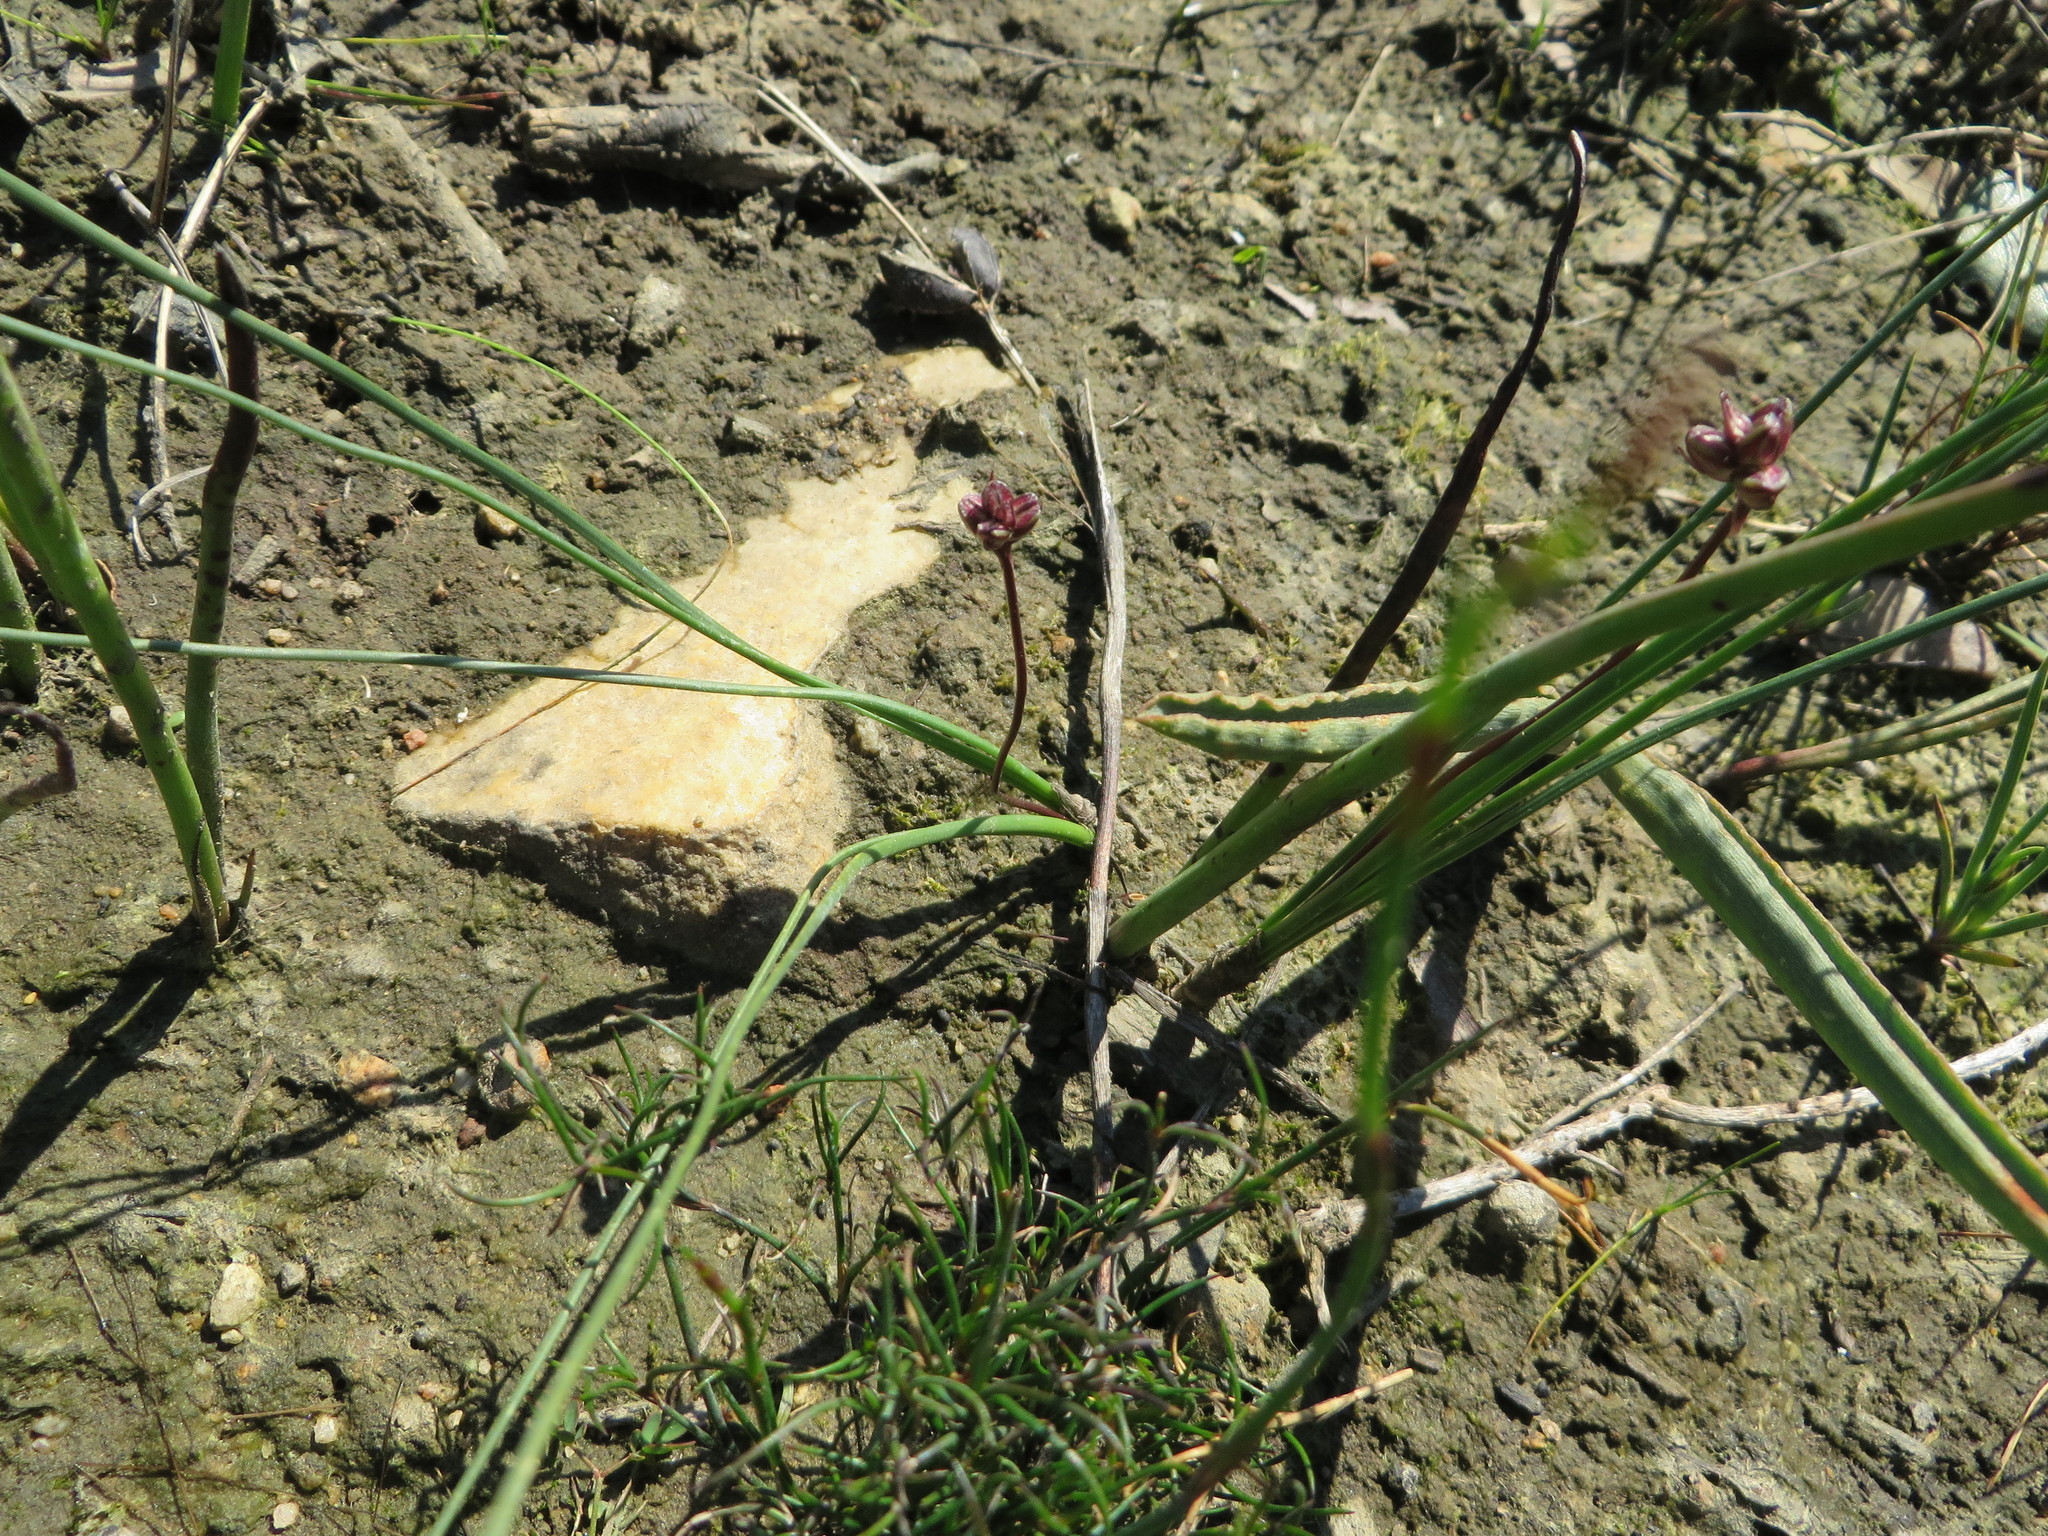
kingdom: Plantae
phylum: Tracheophyta
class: Liliopsida
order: Asparagales
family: Asparagaceae
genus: Drimia
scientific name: Drimia exuviata
